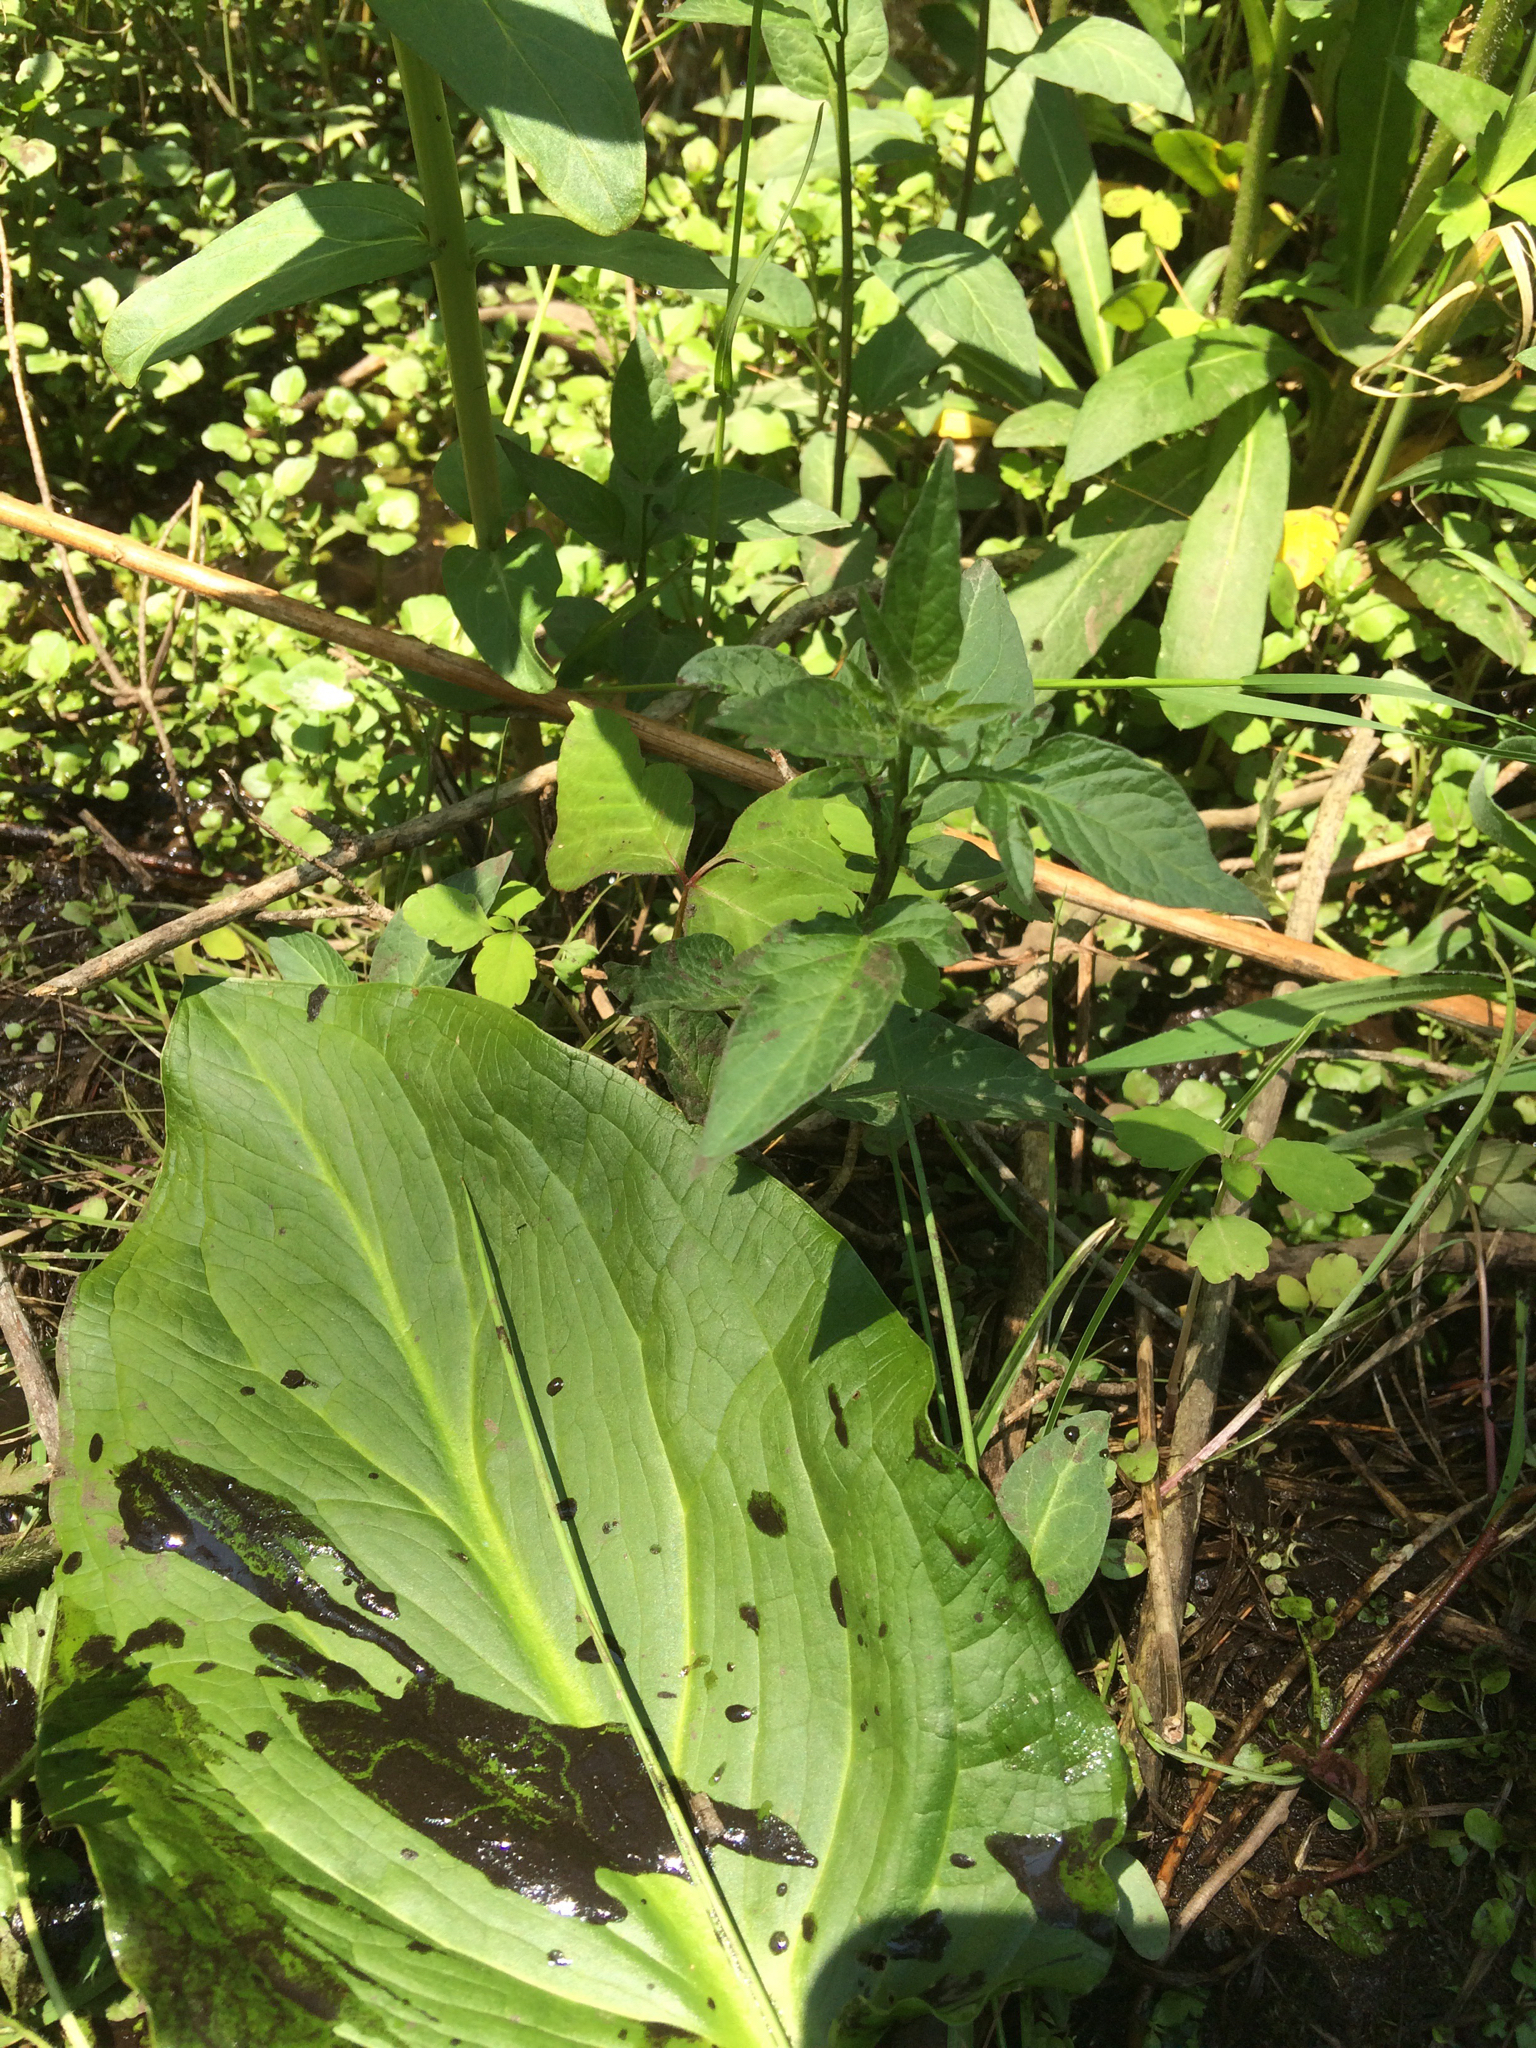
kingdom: Plantae
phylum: Tracheophyta
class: Magnoliopsida
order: Solanales
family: Solanaceae
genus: Solanum
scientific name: Solanum dulcamara
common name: Climbing nightshade
